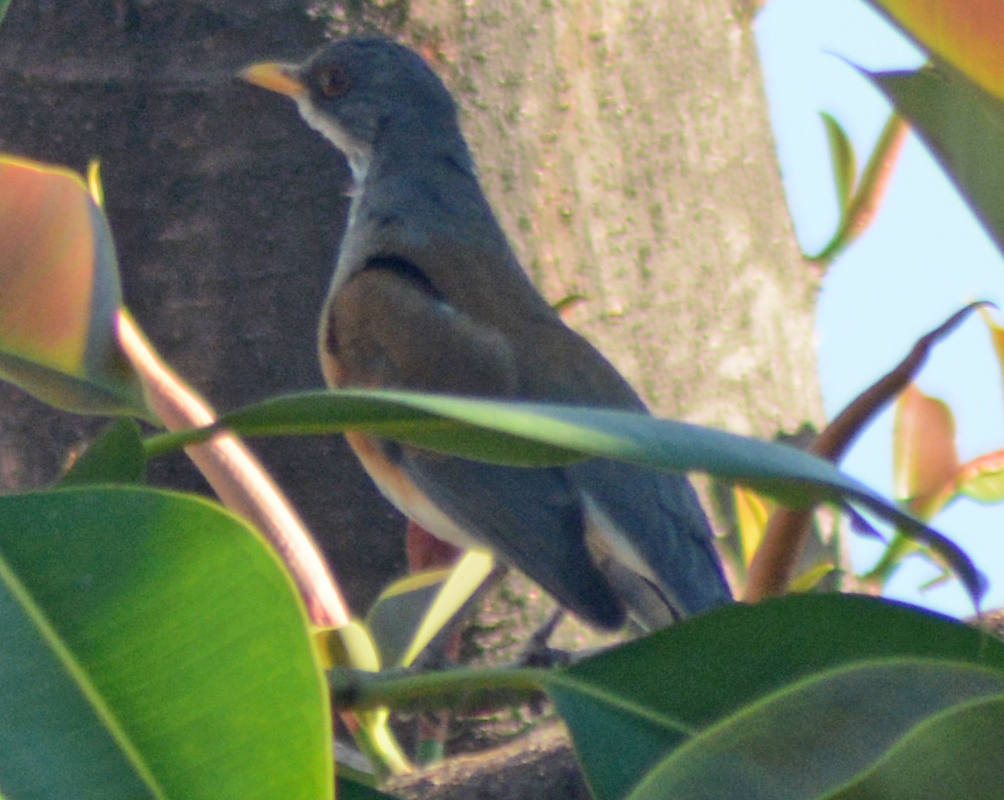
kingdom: Animalia
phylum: Chordata
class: Aves
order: Passeriformes
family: Turdidae
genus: Turdus
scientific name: Turdus rufopalliatus
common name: Rufous-backed robin
